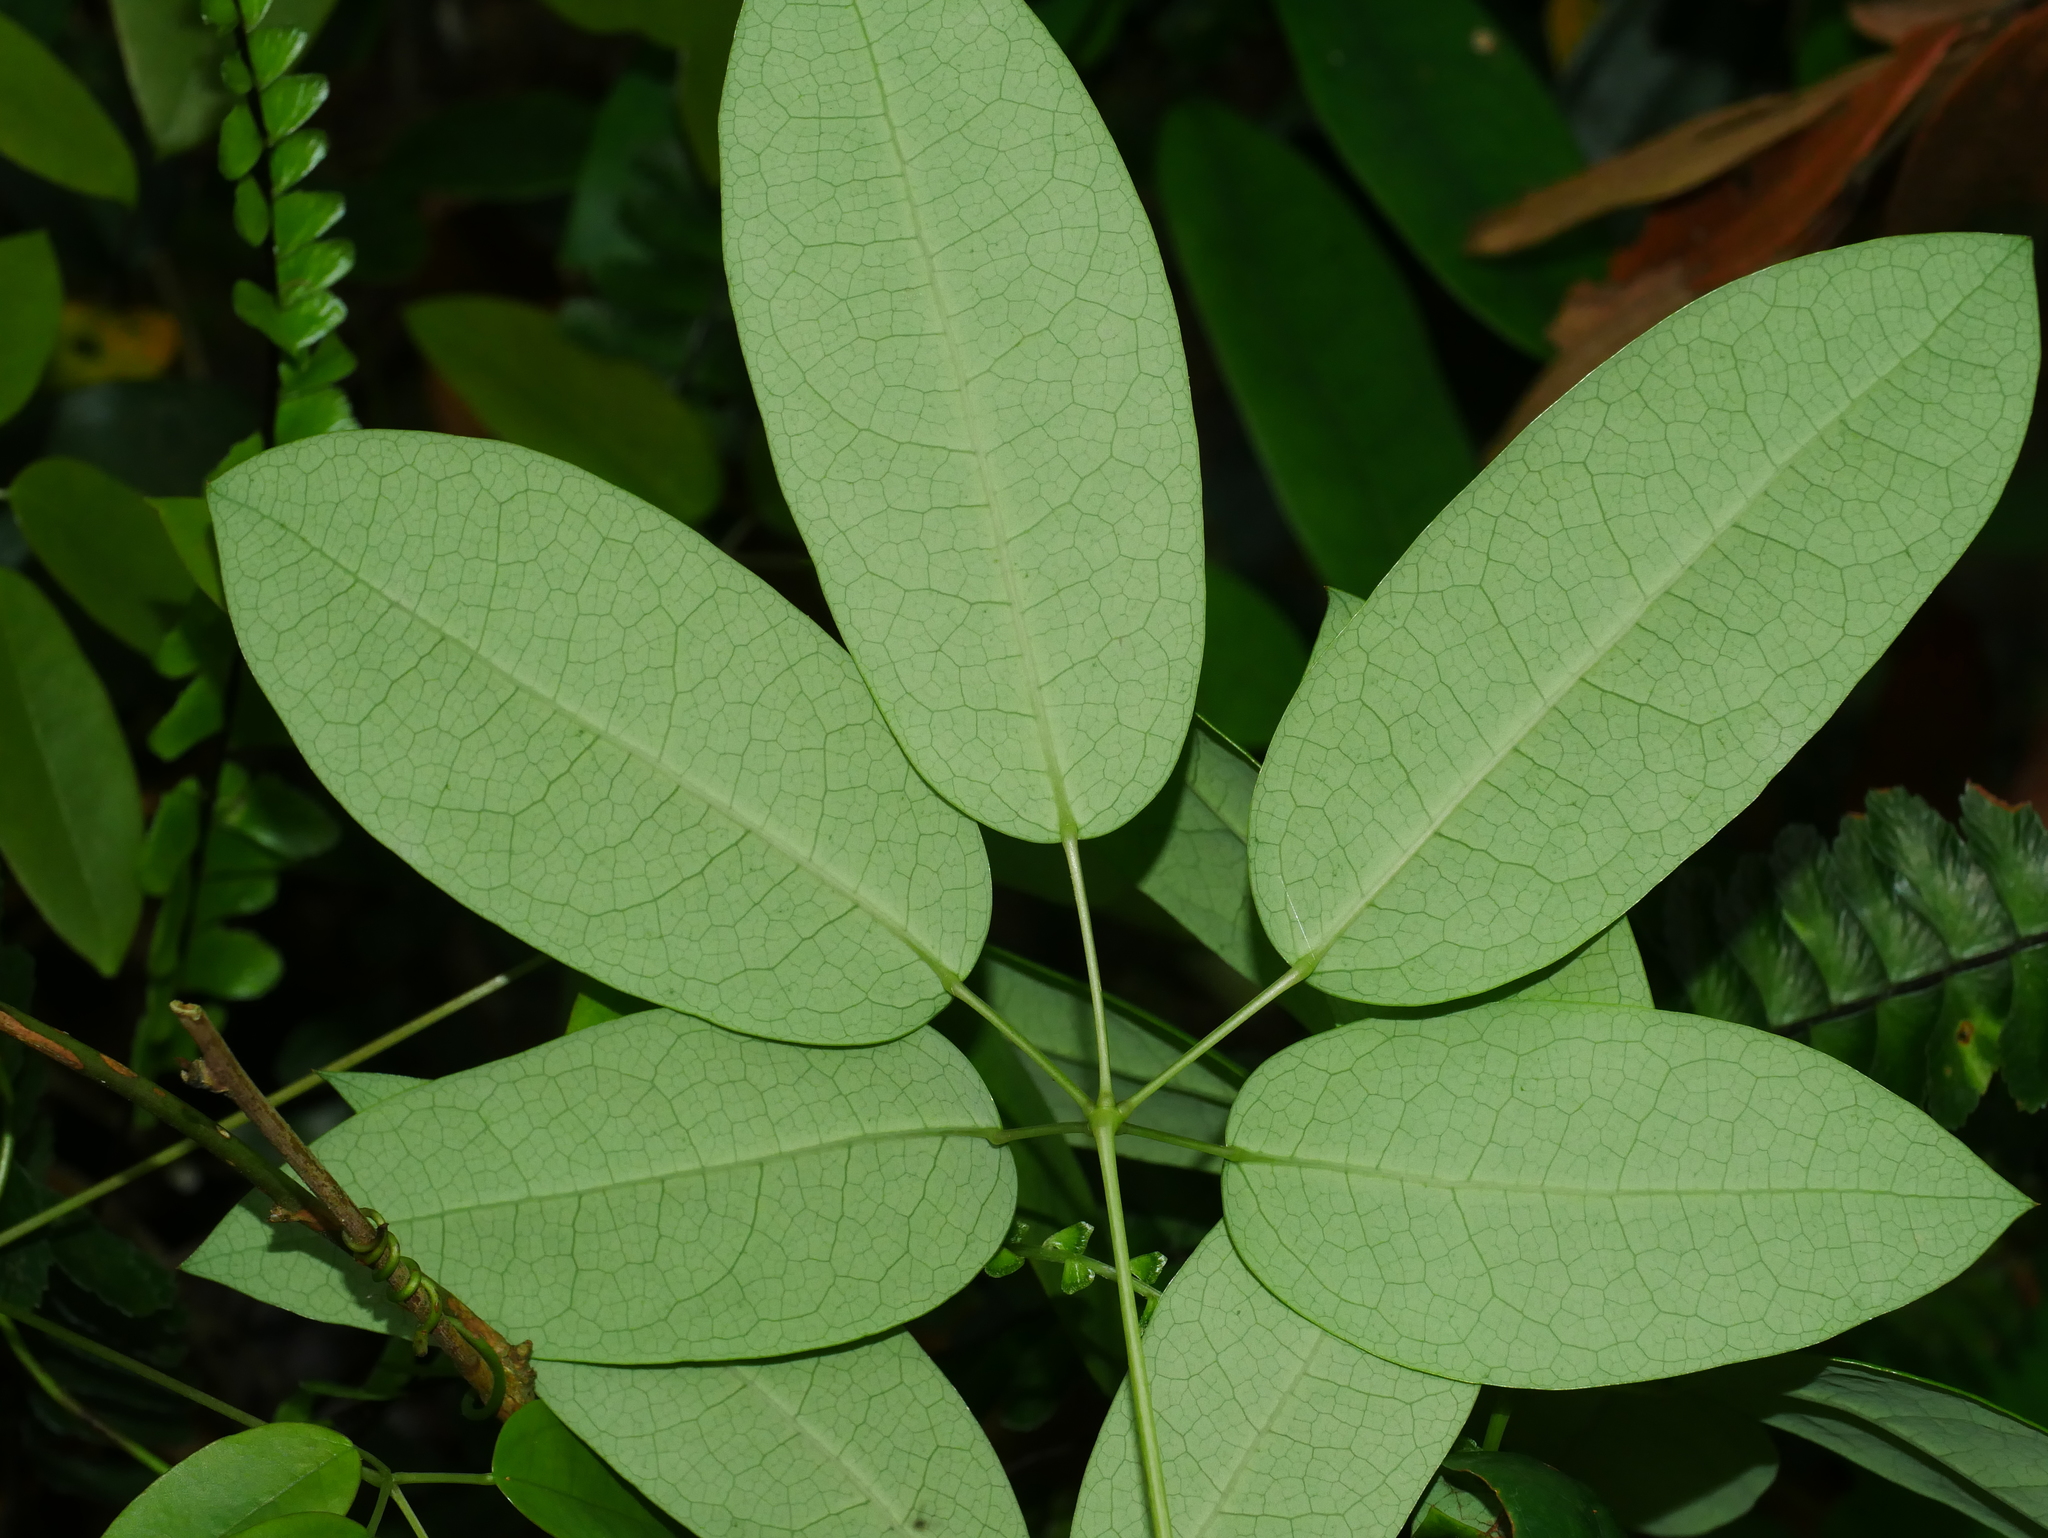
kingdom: Plantae
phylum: Tracheophyta
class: Magnoliopsida
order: Ranunculales
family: Lardizabalaceae
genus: Stauntonia
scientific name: Stauntonia obovata
